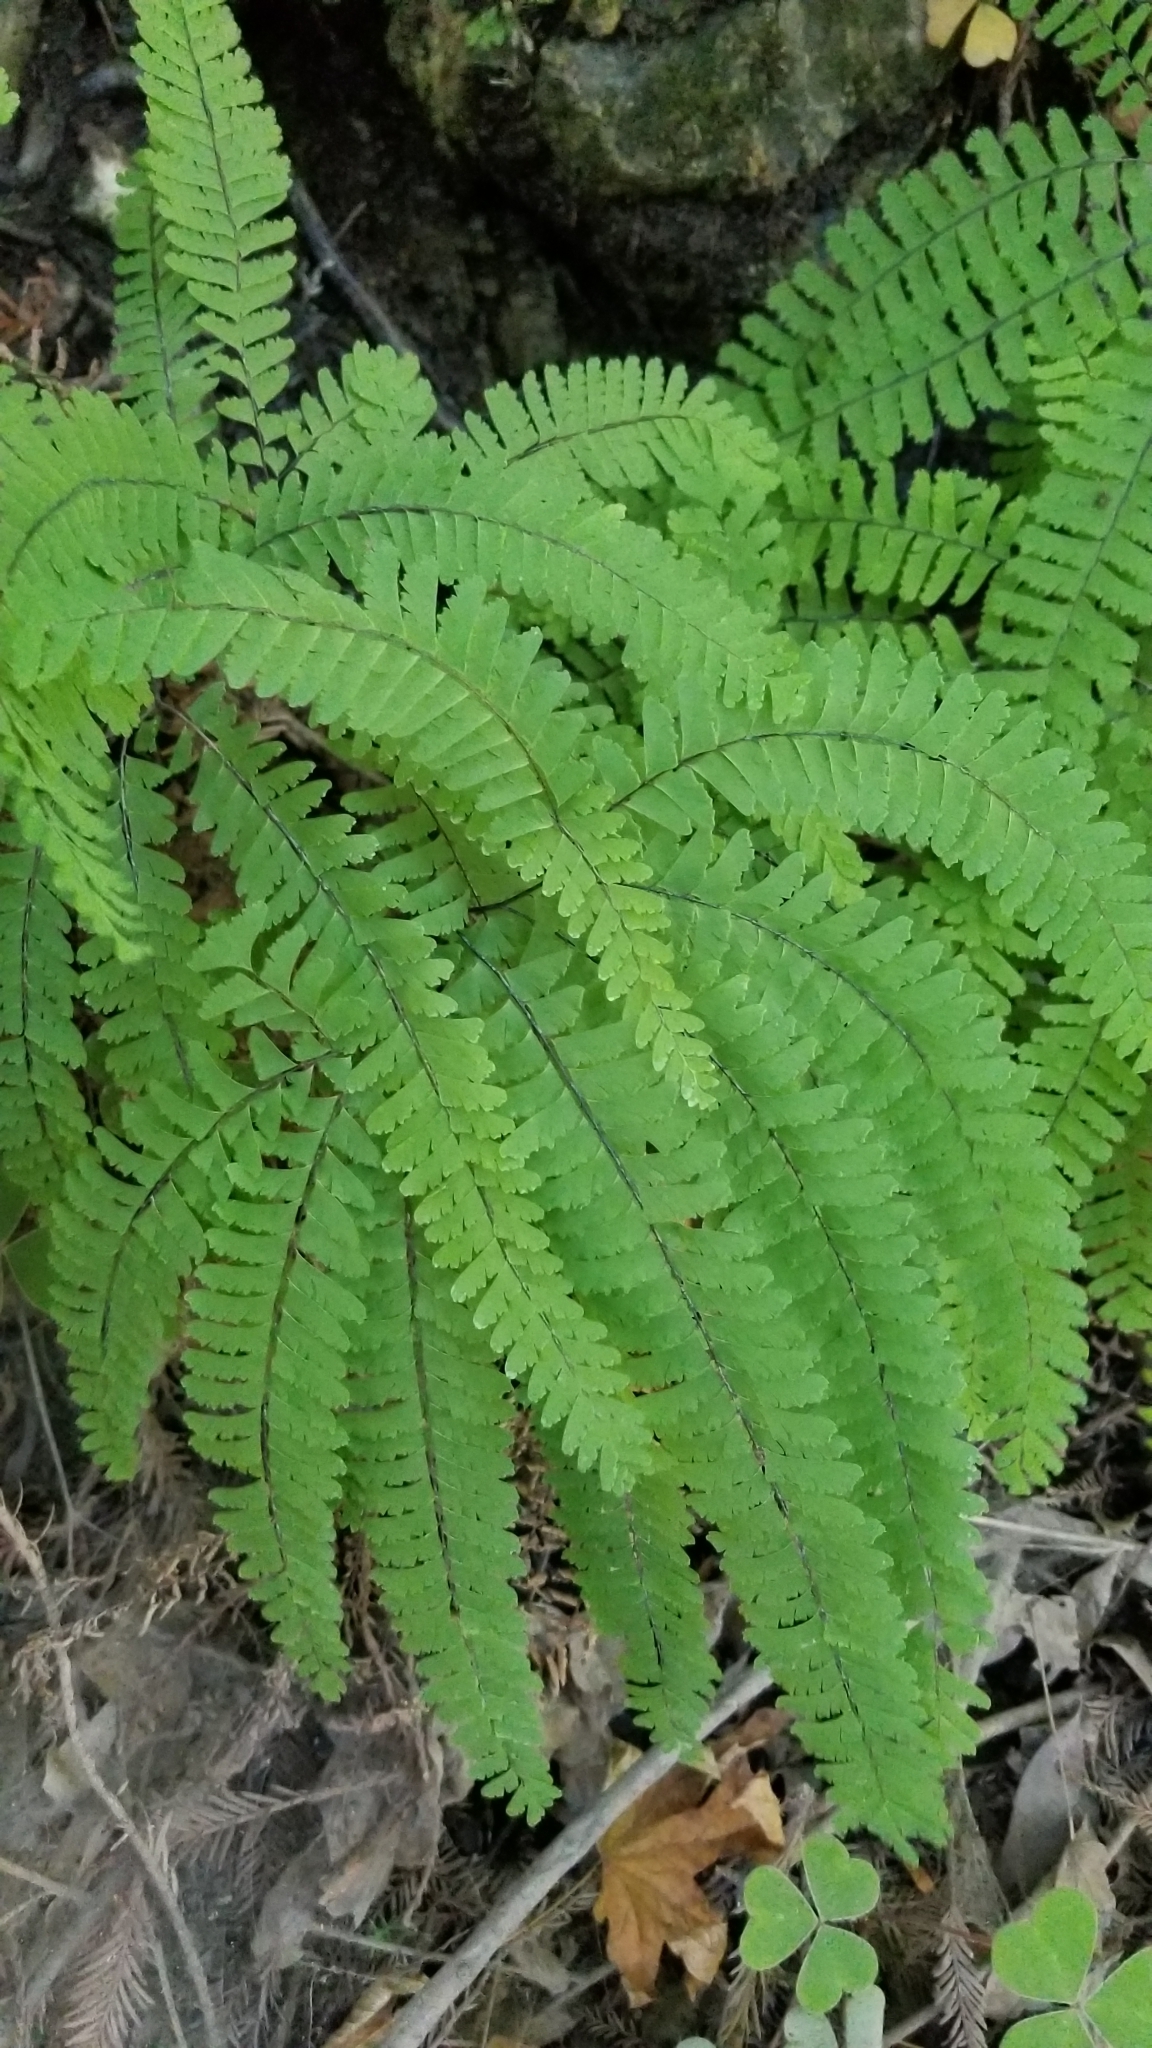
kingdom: Plantae
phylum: Tracheophyta
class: Polypodiopsida
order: Polypodiales
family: Pteridaceae
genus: Adiantum
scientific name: Adiantum aleuticum
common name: Aleutian maidenhair fern
